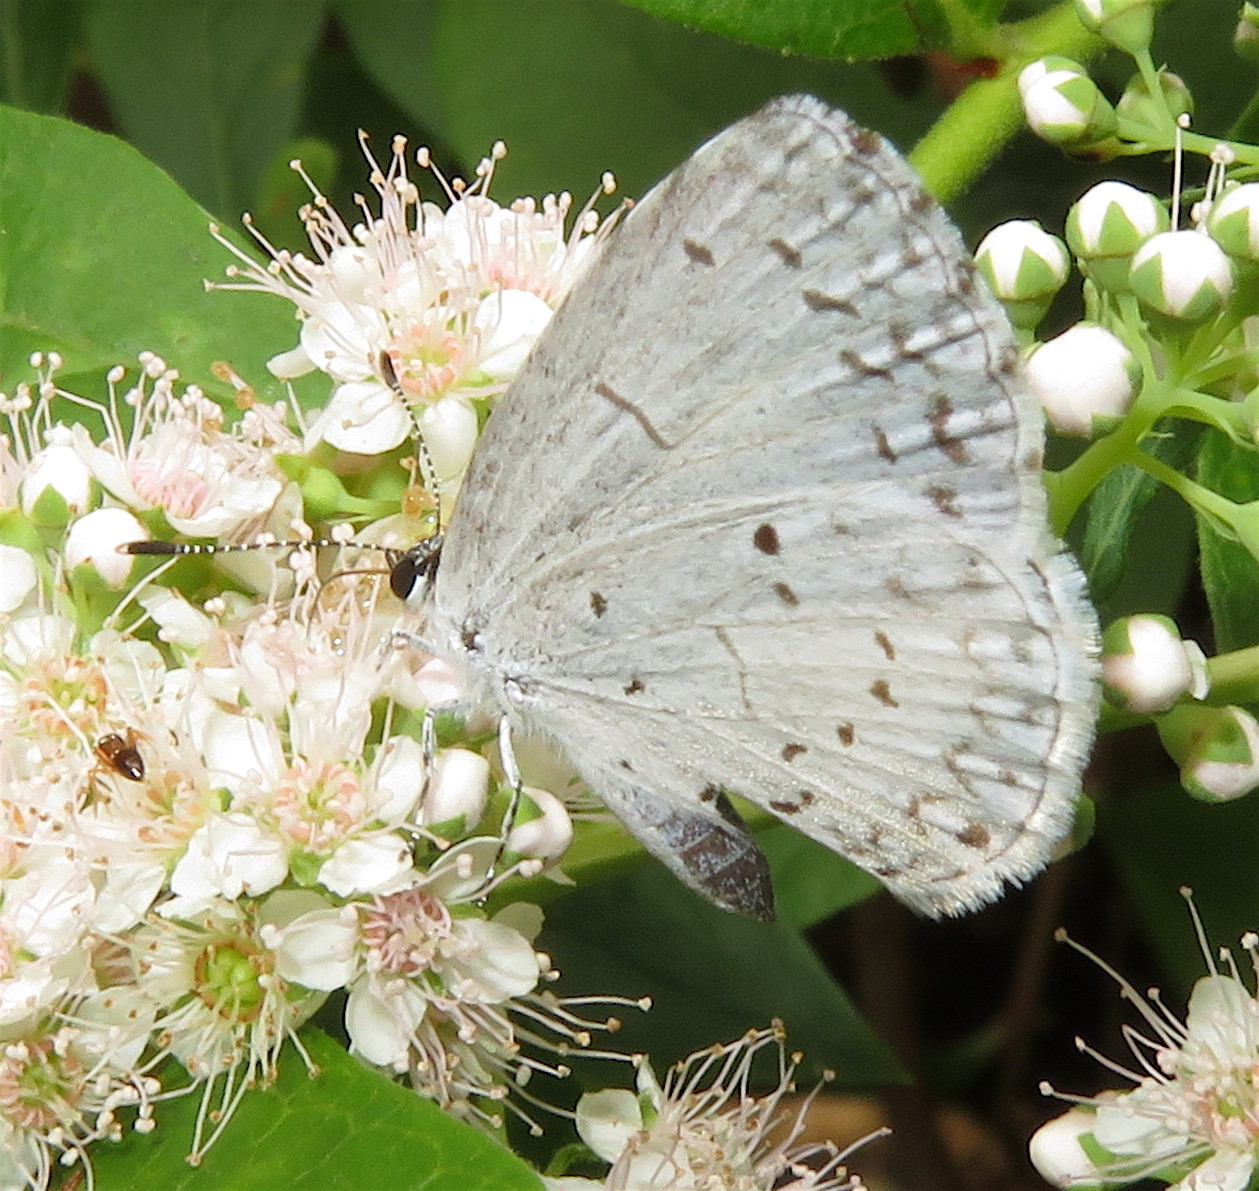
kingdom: Animalia
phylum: Arthropoda
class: Insecta
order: Lepidoptera
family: Lycaenidae
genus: Cyaniris
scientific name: Cyaniris neglecta
